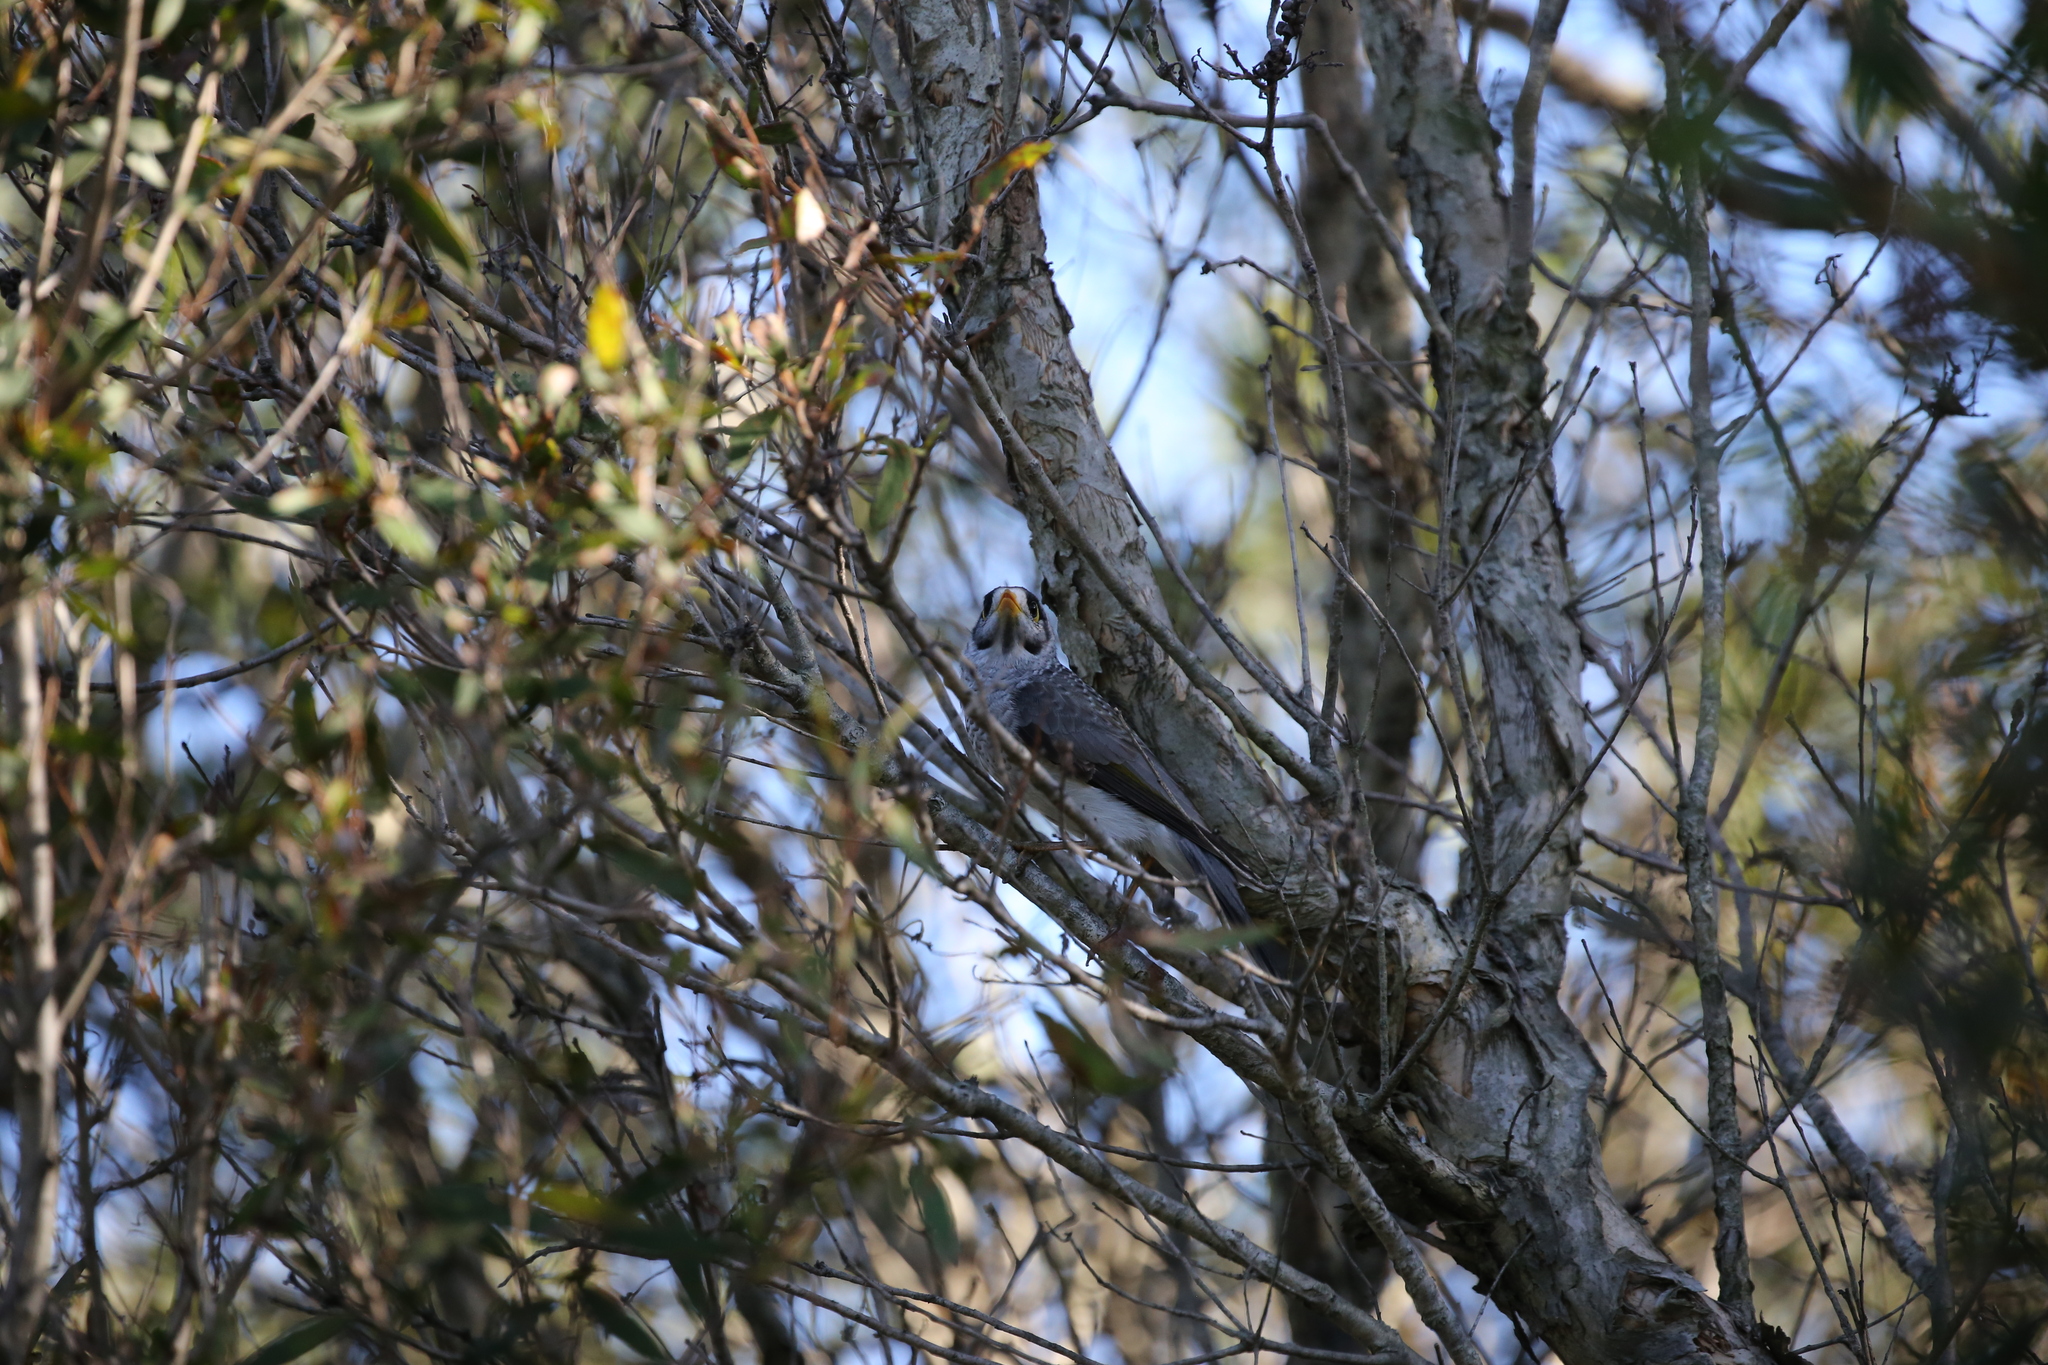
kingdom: Animalia
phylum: Chordata
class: Aves
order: Passeriformes
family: Meliphagidae
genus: Manorina
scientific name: Manorina melanocephala
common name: Noisy miner
